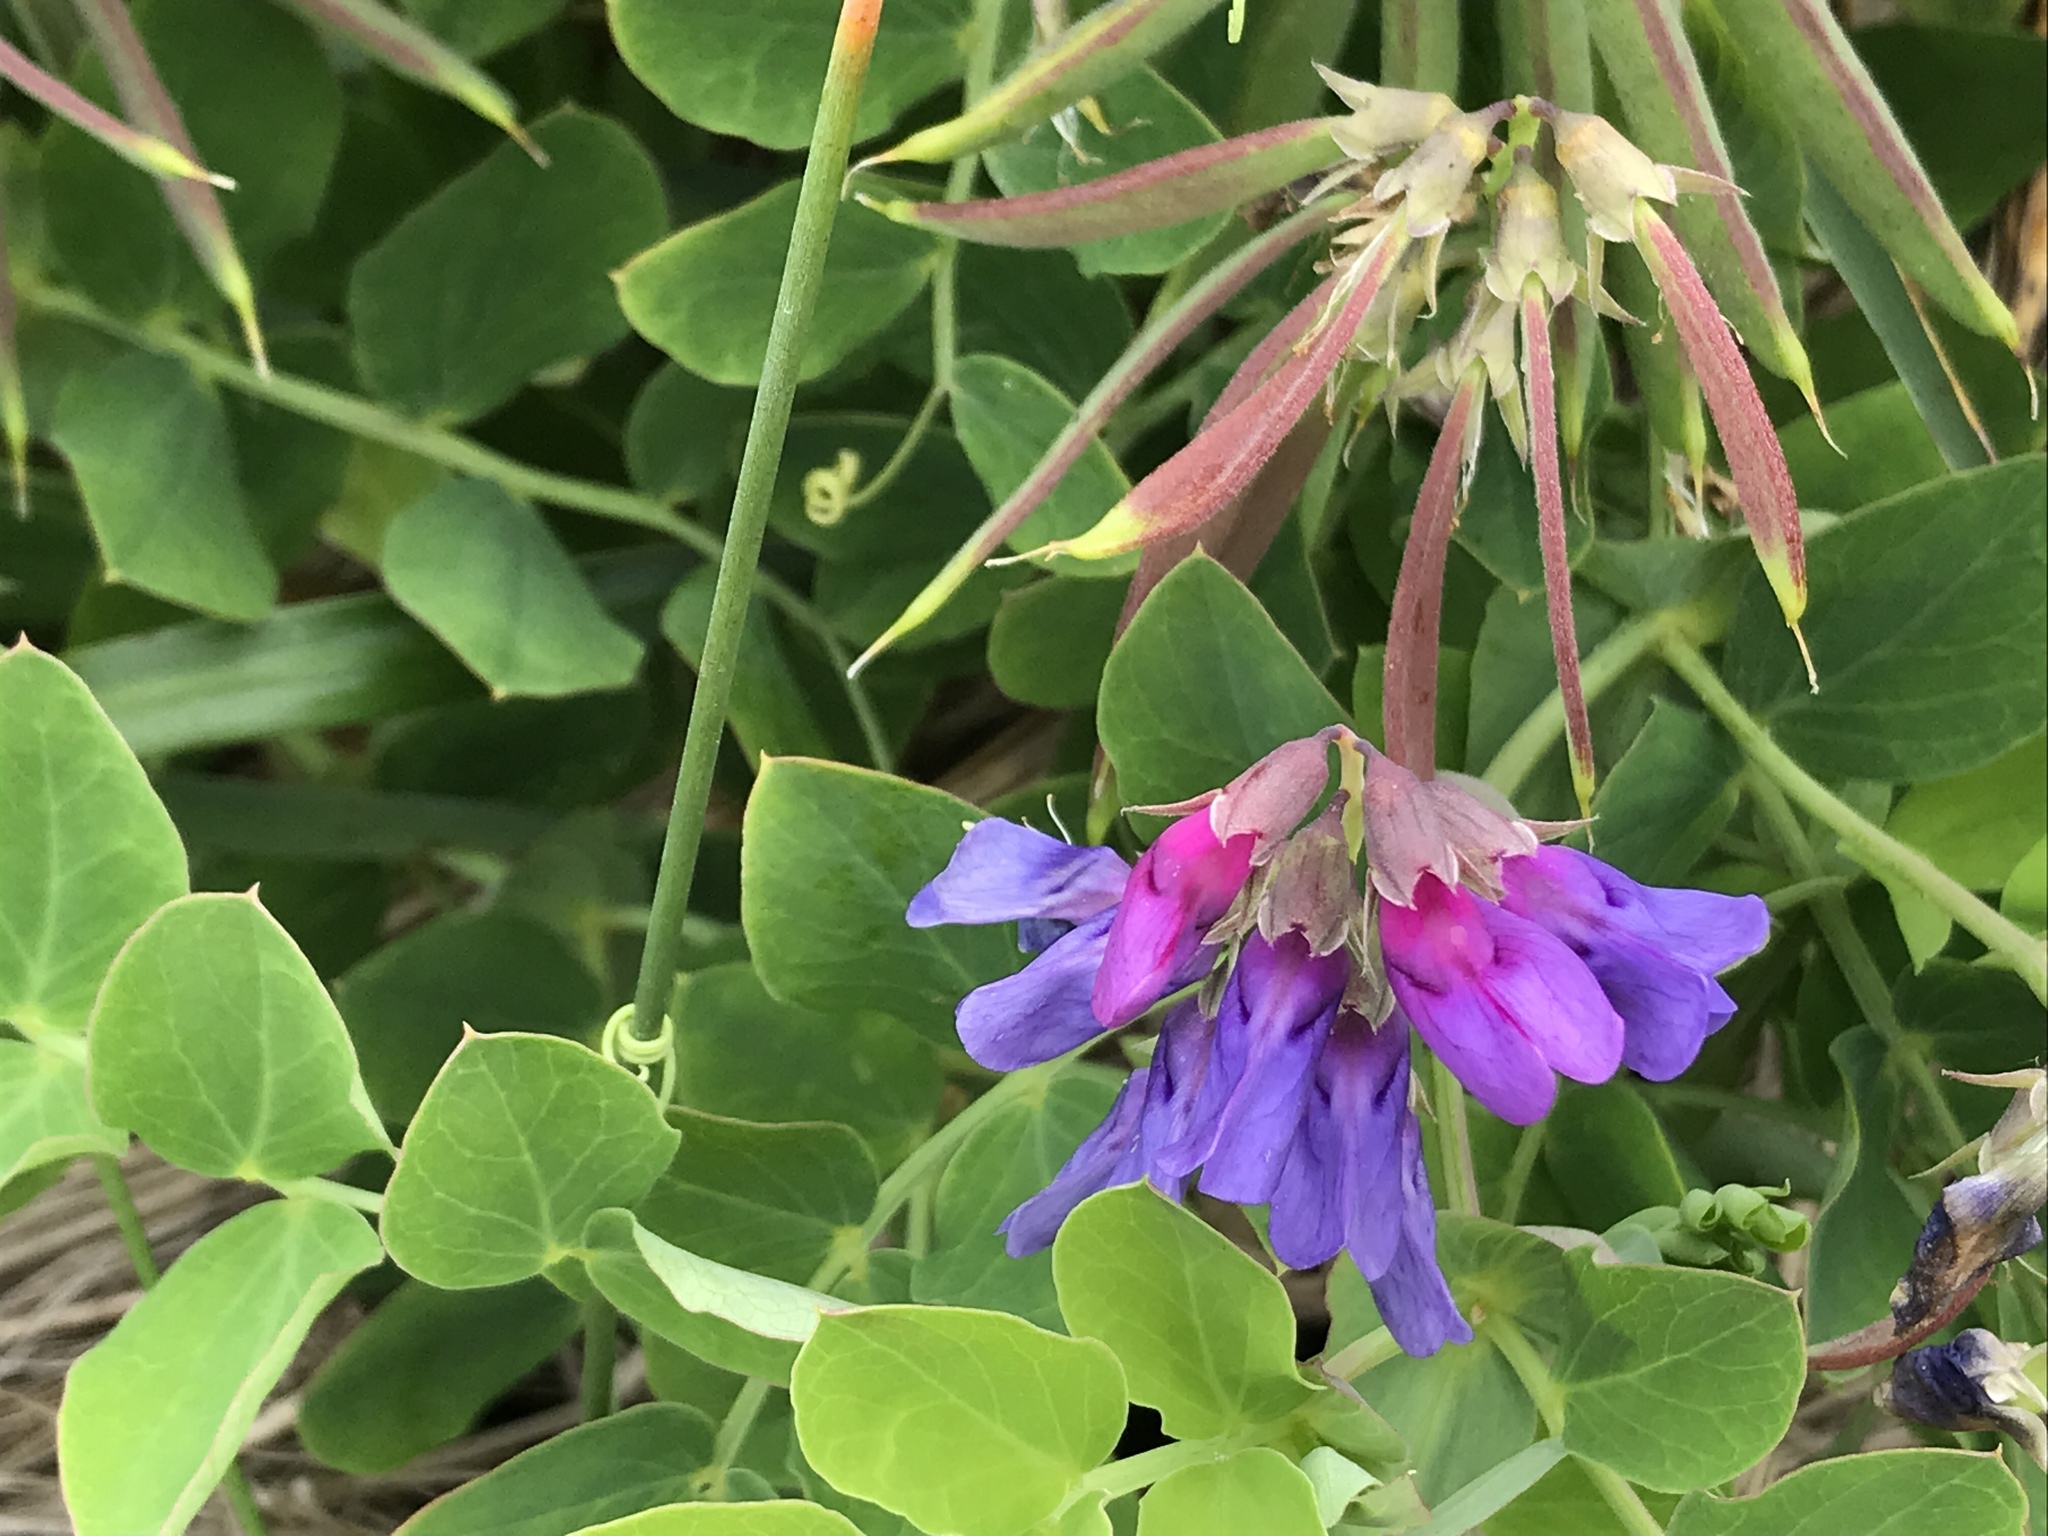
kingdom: Plantae
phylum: Tracheophyta
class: Magnoliopsida
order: Fabales
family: Fabaceae
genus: Lathyrus
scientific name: Lathyrus japonicus
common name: Sea pea
